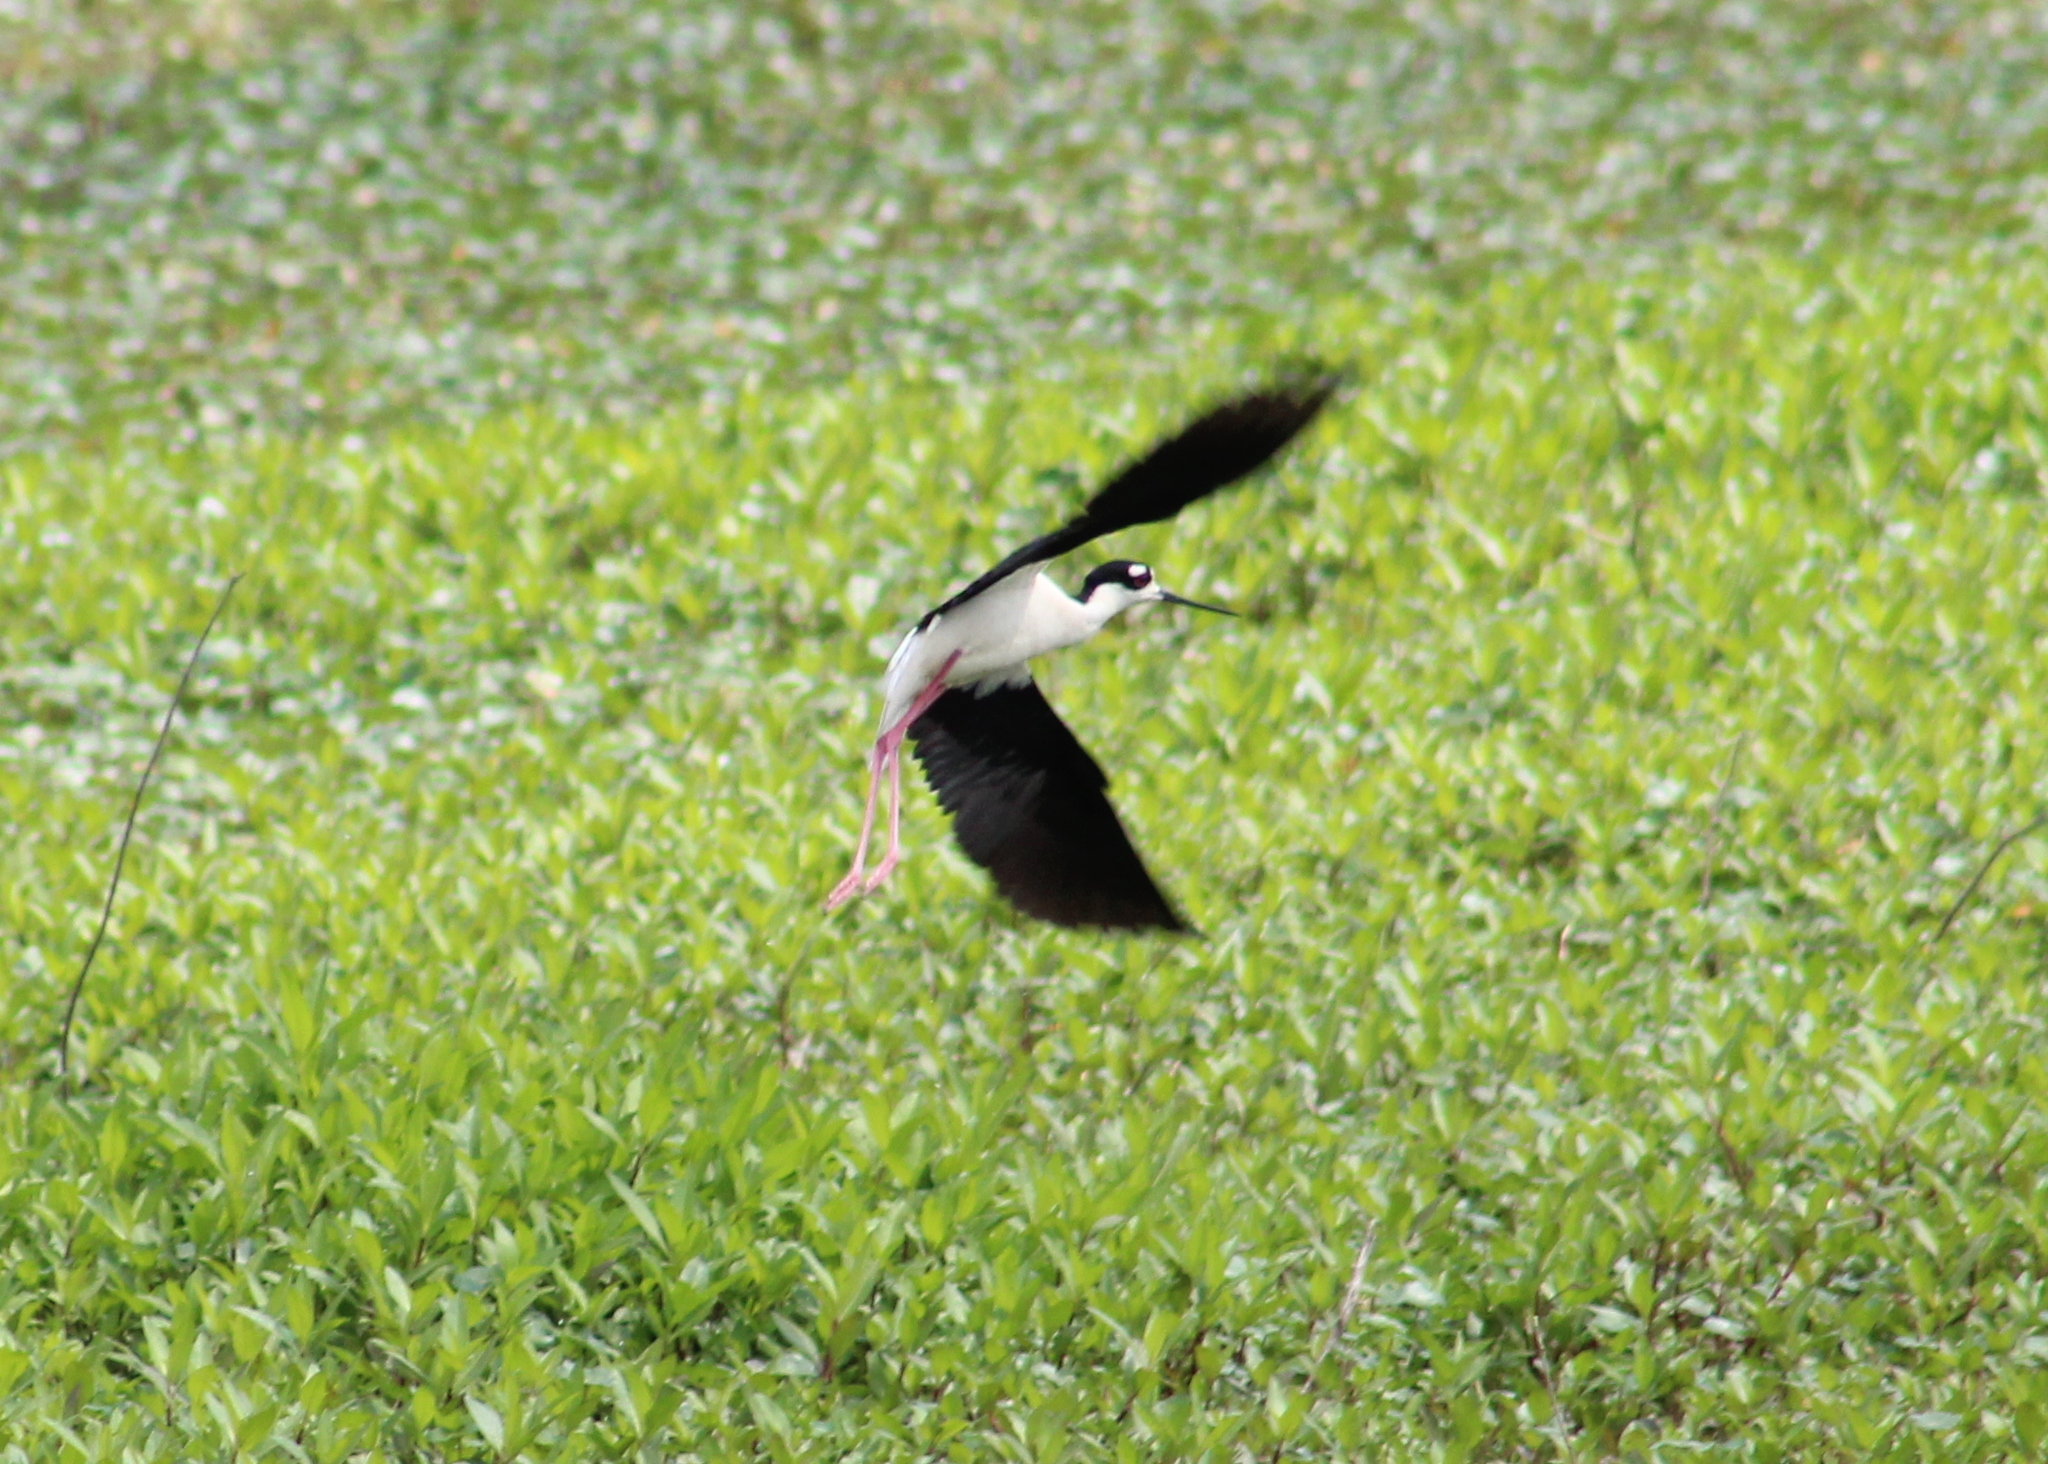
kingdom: Animalia
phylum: Chordata
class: Aves
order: Charadriiformes
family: Recurvirostridae
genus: Himantopus
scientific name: Himantopus mexicanus
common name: Black-necked stilt
